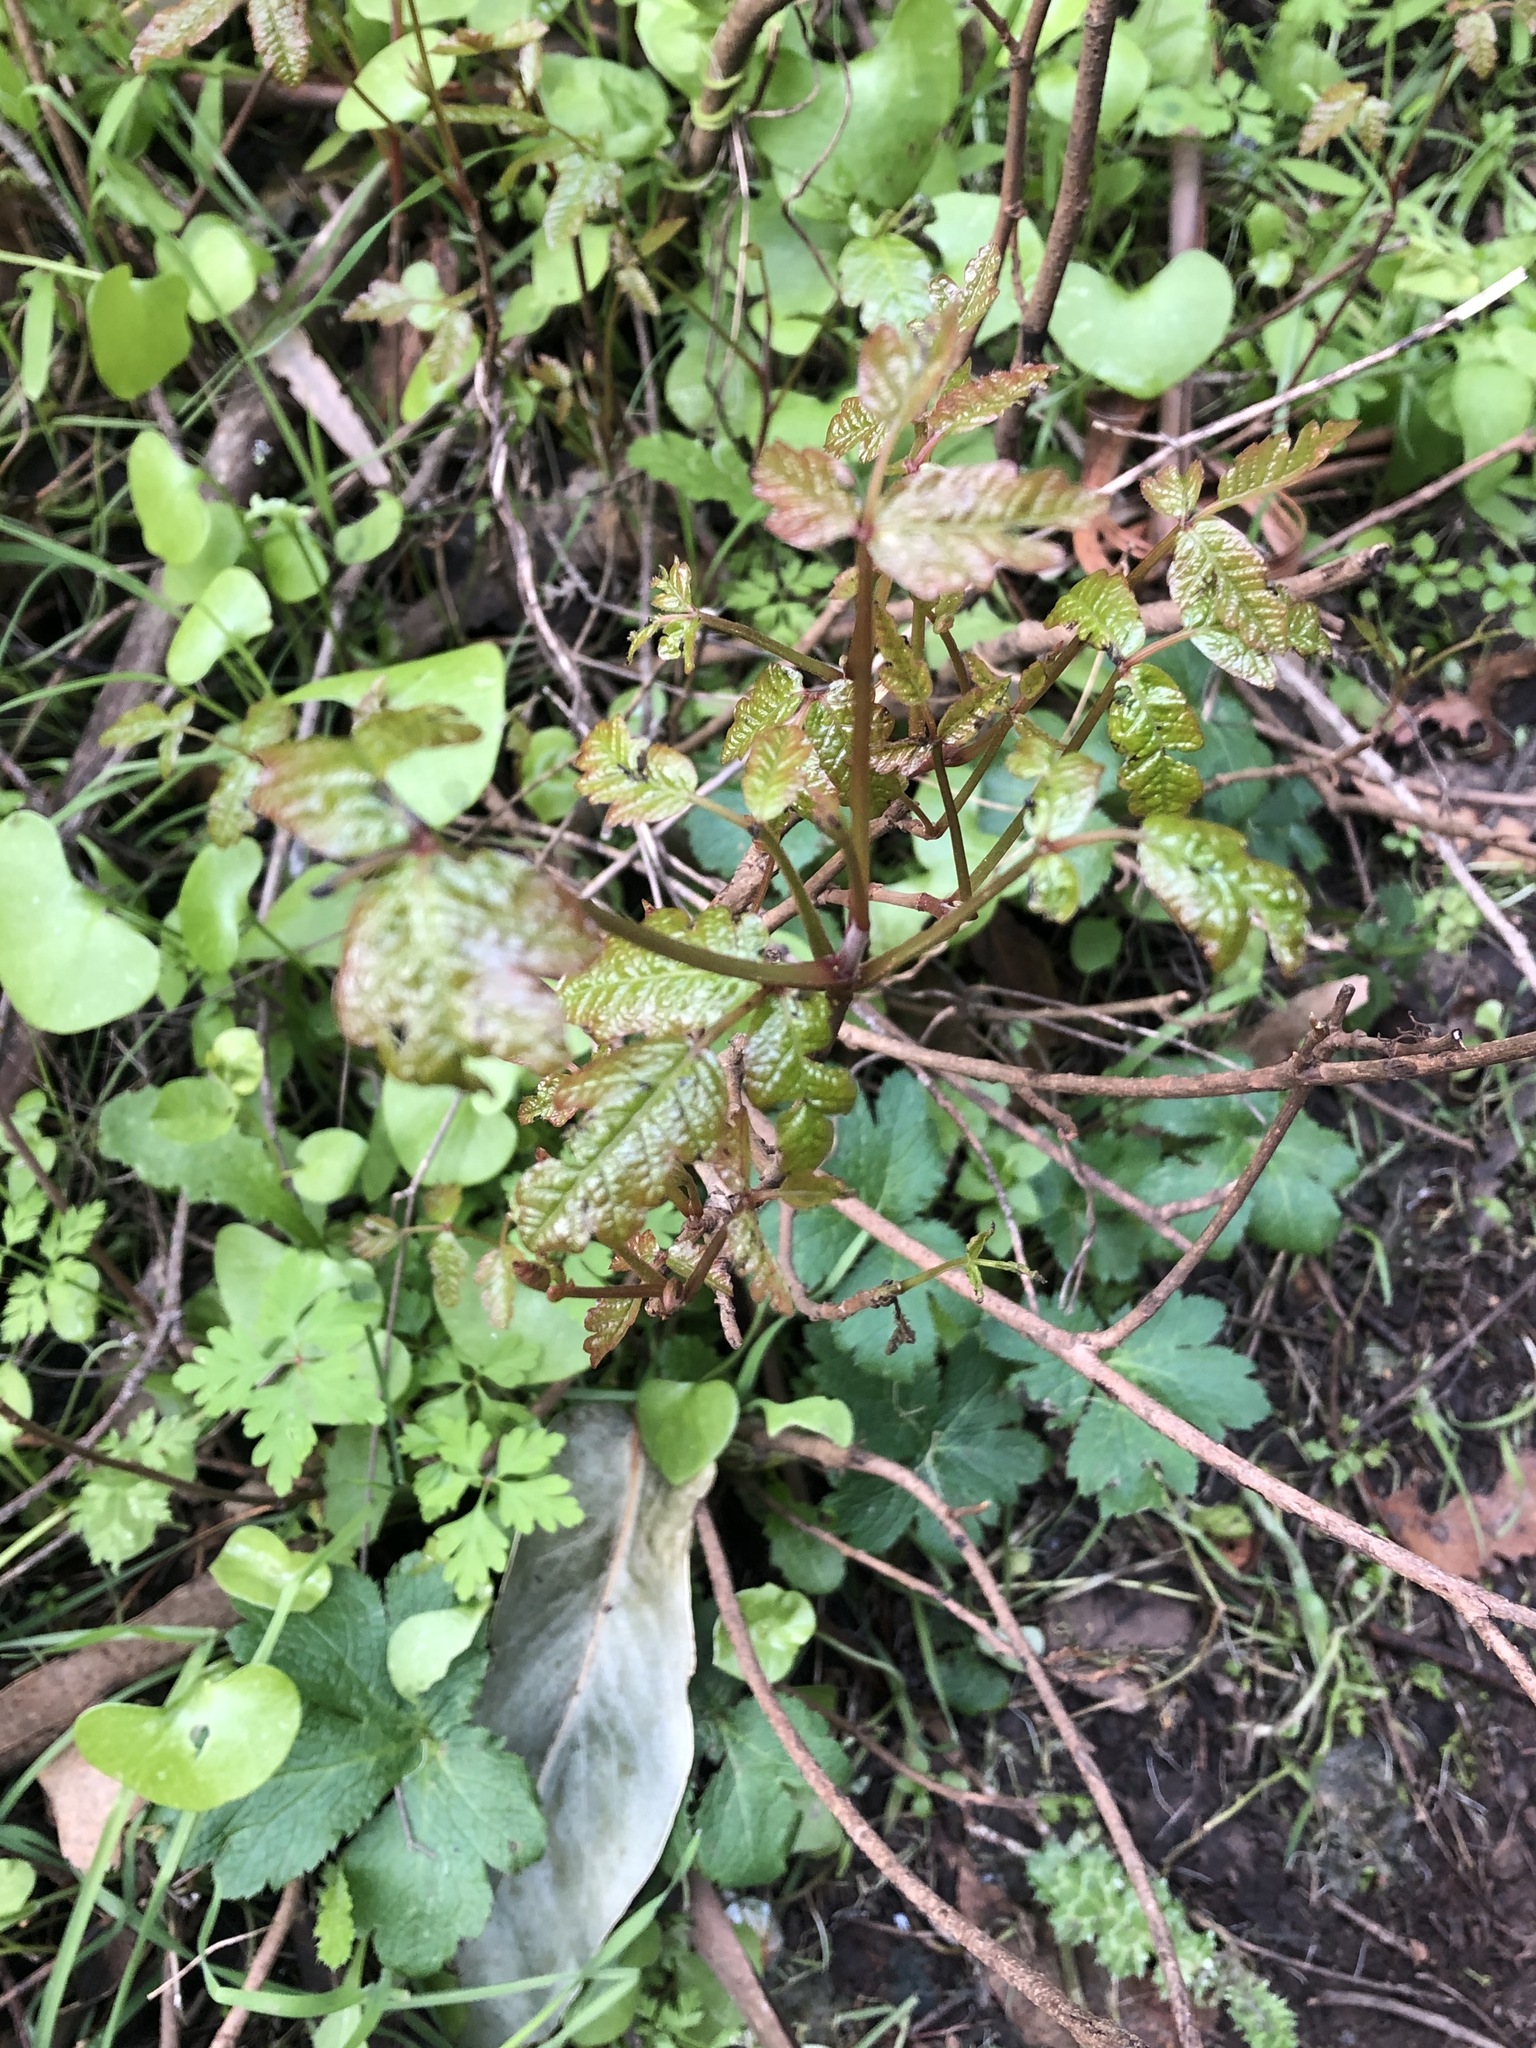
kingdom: Plantae
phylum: Tracheophyta
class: Magnoliopsida
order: Sapindales
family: Anacardiaceae
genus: Toxicodendron
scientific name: Toxicodendron diversilobum
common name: Pacific poison-oak
